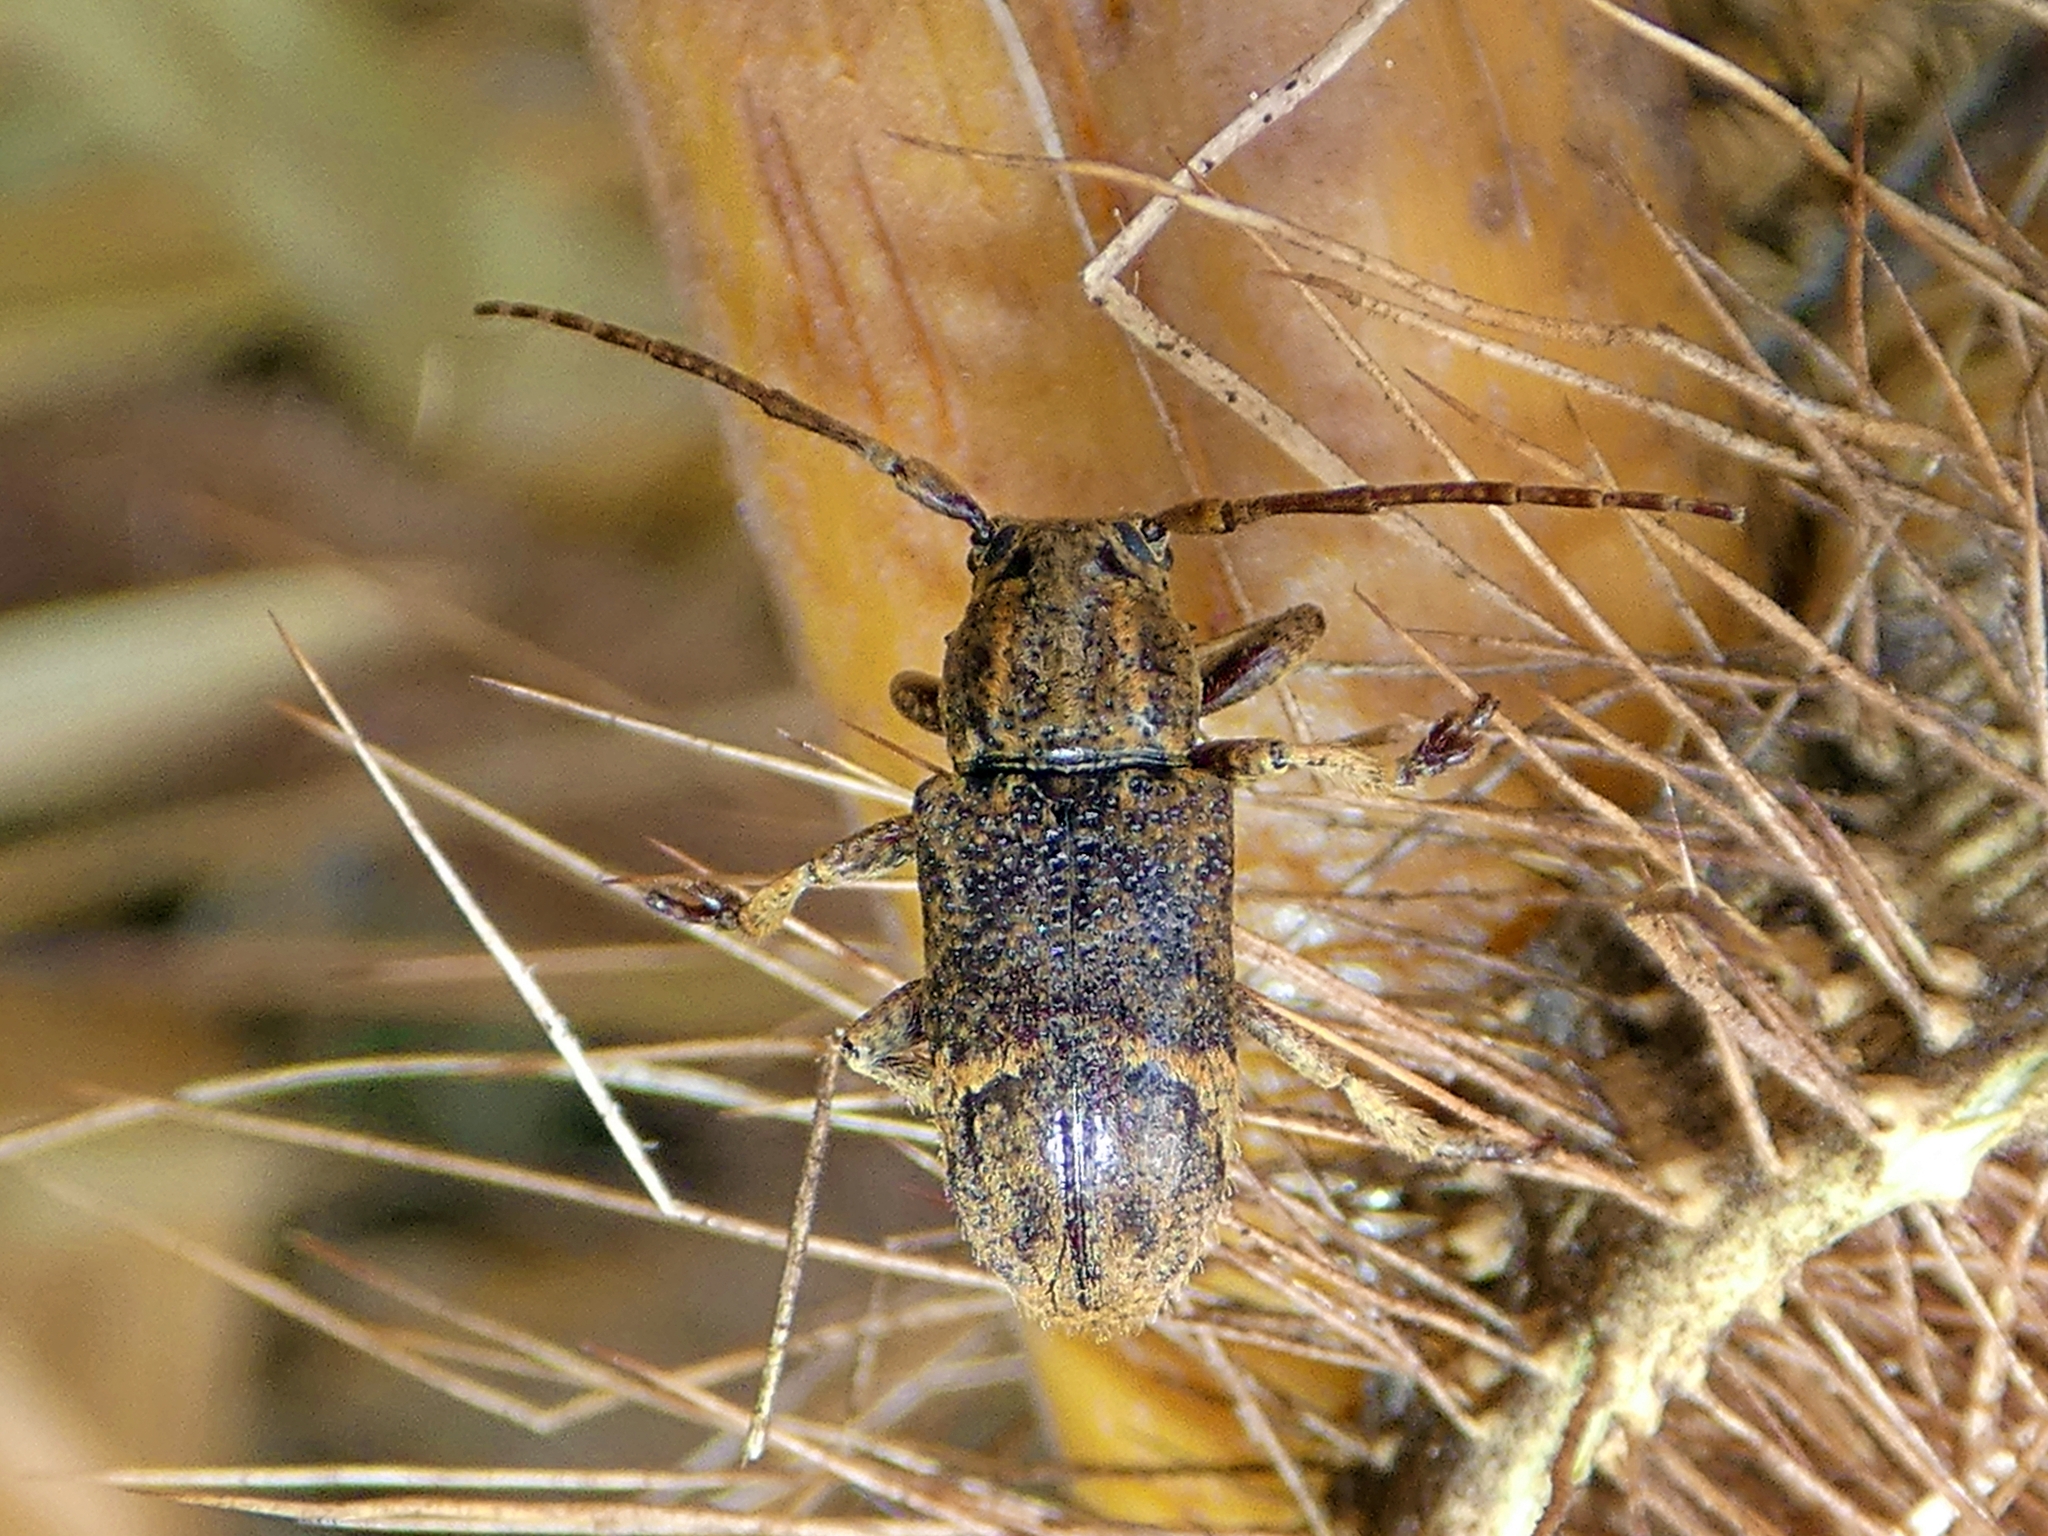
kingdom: Animalia
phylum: Arthropoda
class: Insecta
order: Coleoptera
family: Cerambycidae
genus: Rhytiphora
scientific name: Rhytiphora oblita
